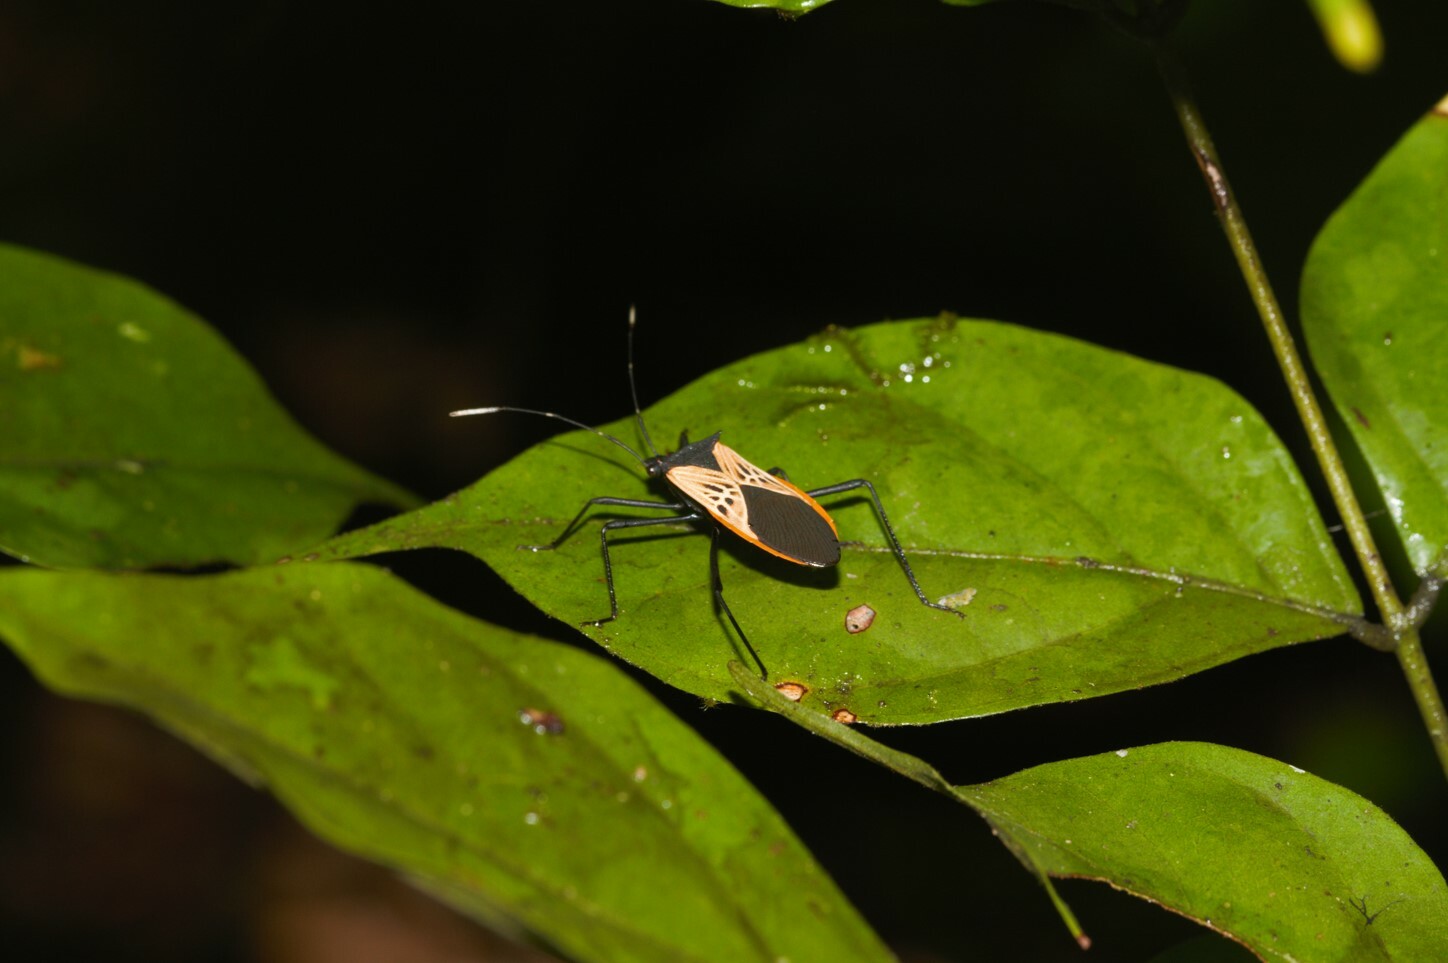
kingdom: Animalia
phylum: Arthropoda
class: Insecta
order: Hemiptera
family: Coreidae
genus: Leptoscelis
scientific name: Leptoscelis limbativentris
